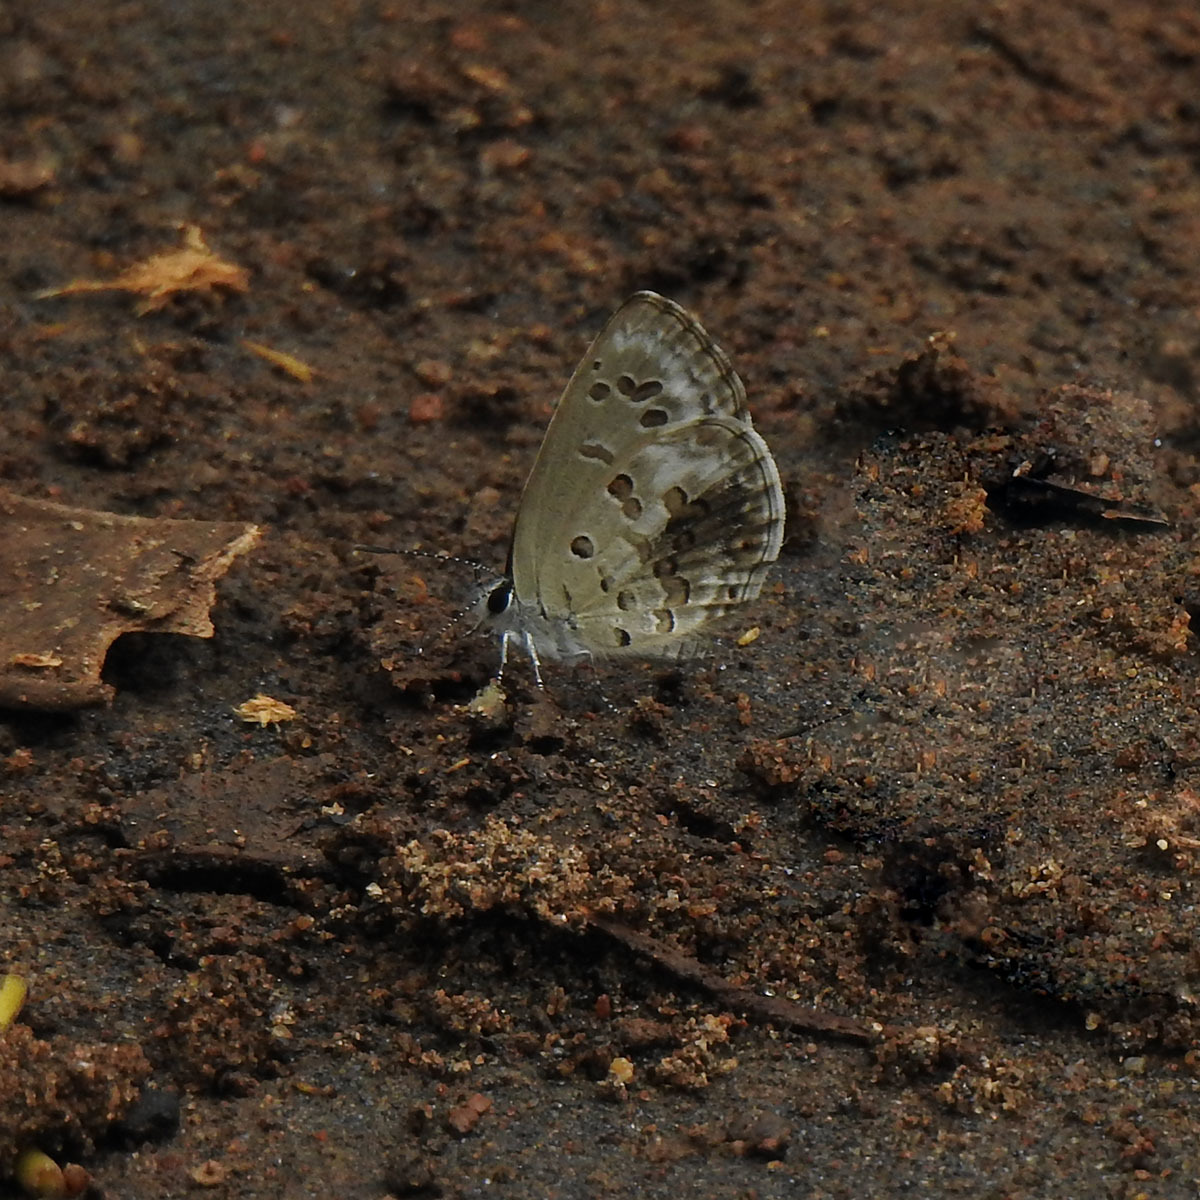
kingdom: Animalia
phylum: Arthropoda
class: Insecta
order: Lepidoptera
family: Lycaenidae
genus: Chilades
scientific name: Chilades laius
